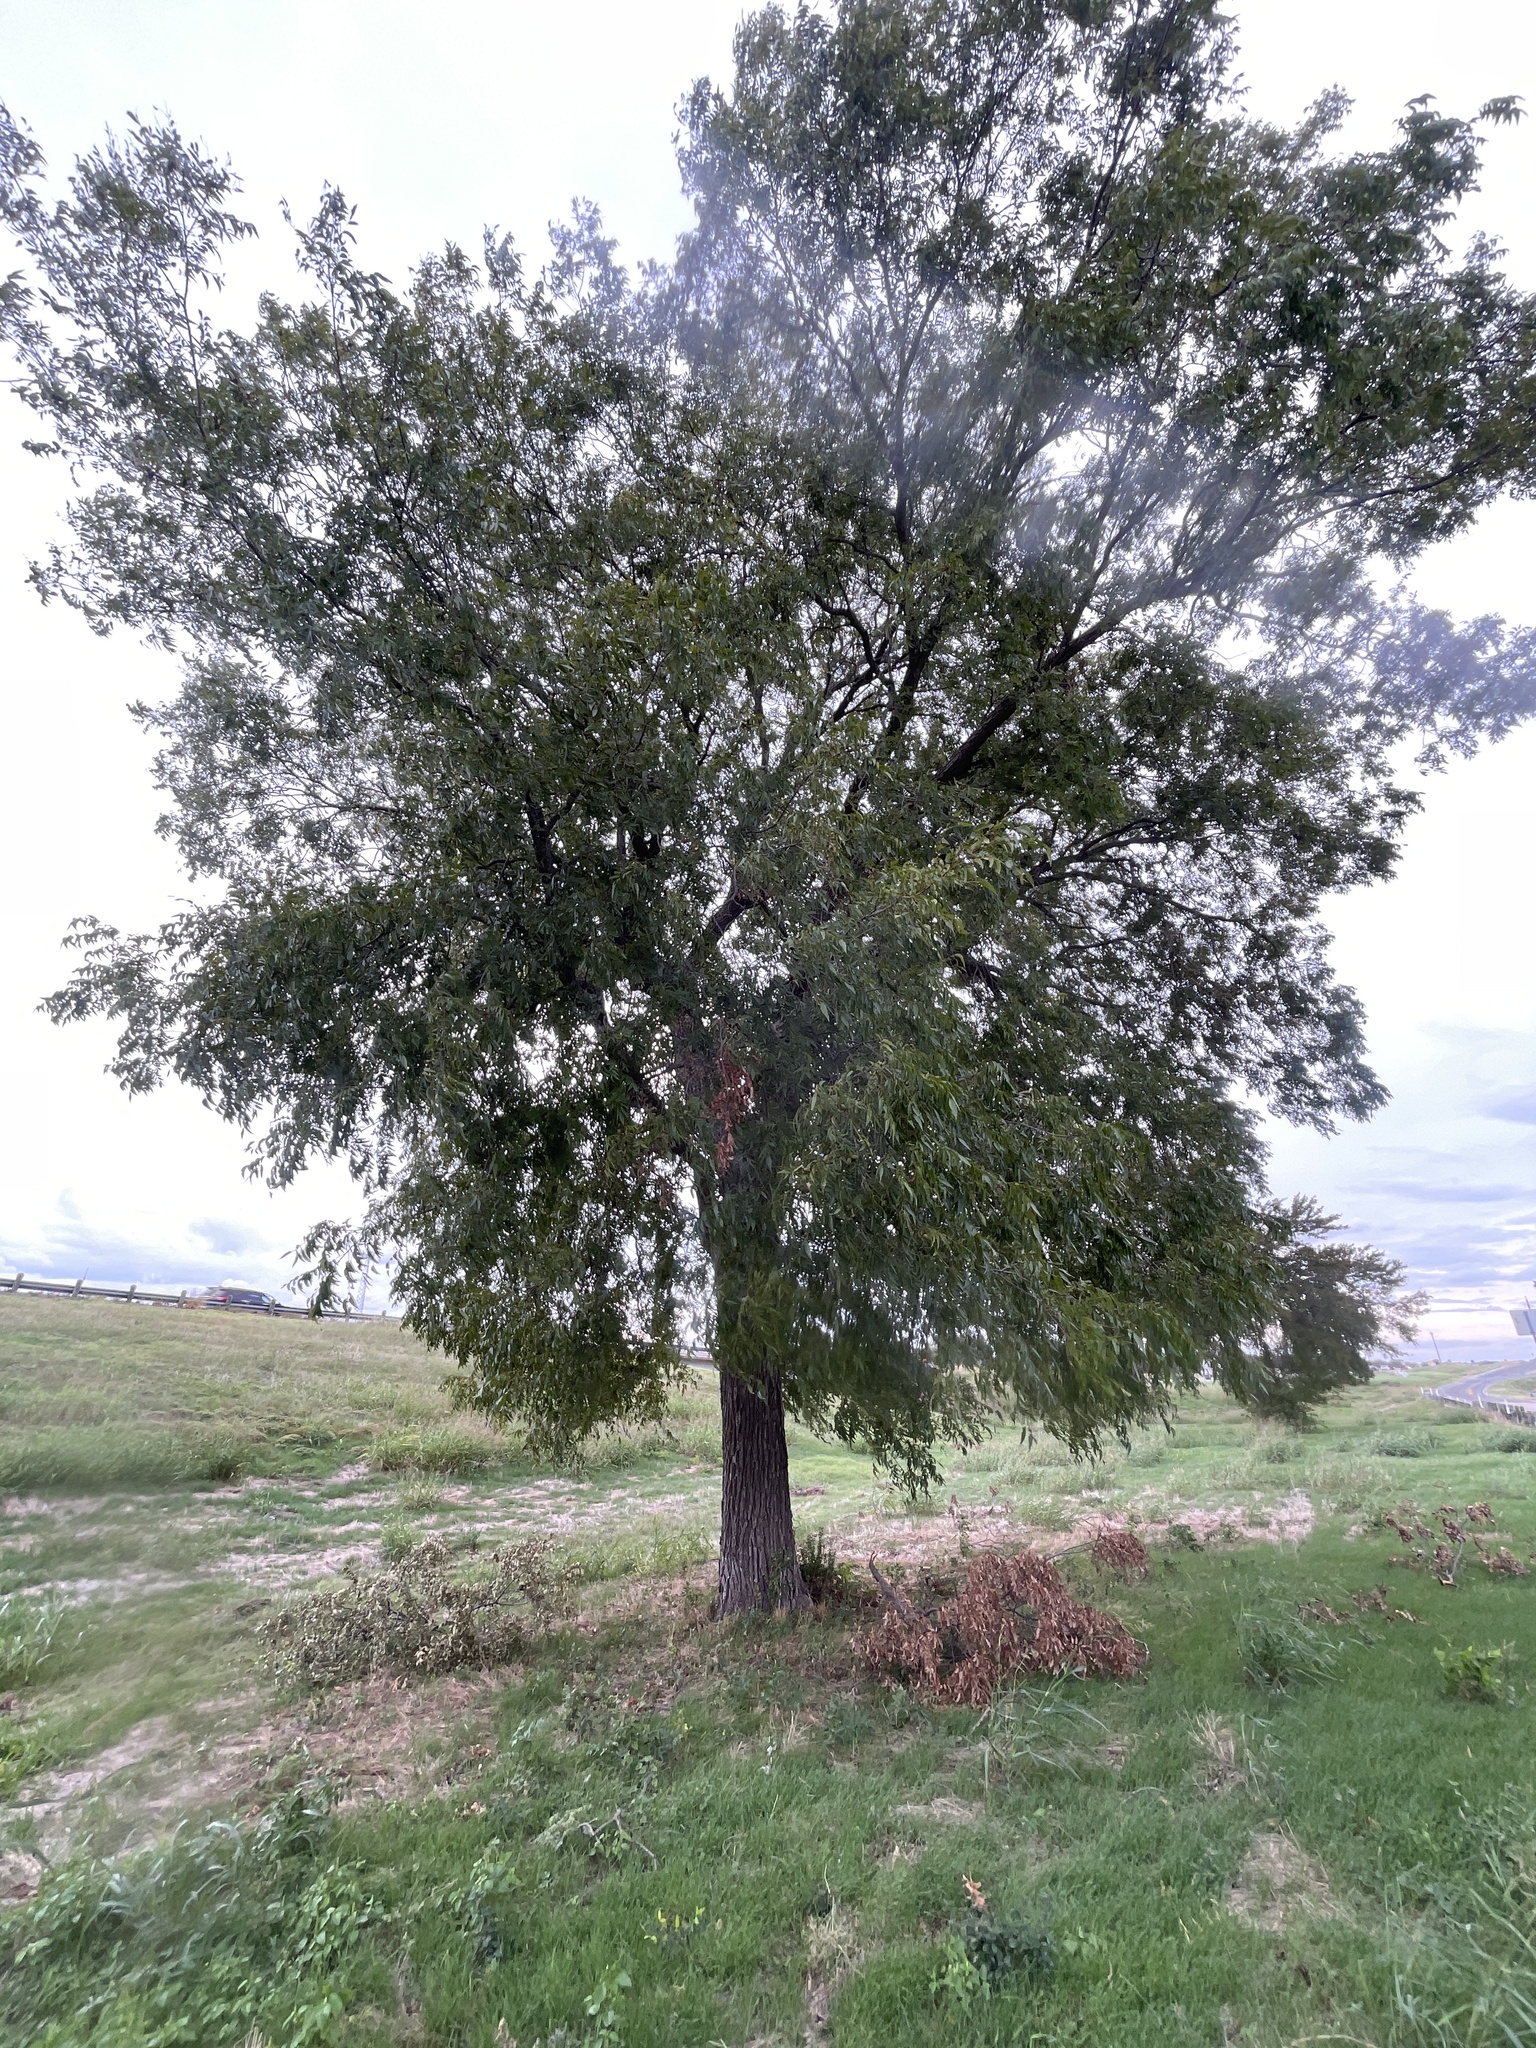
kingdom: Plantae
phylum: Tracheophyta
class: Magnoliopsida
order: Fagales
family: Juglandaceae
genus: Carya
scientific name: Carya illinoinensis
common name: Pecan
